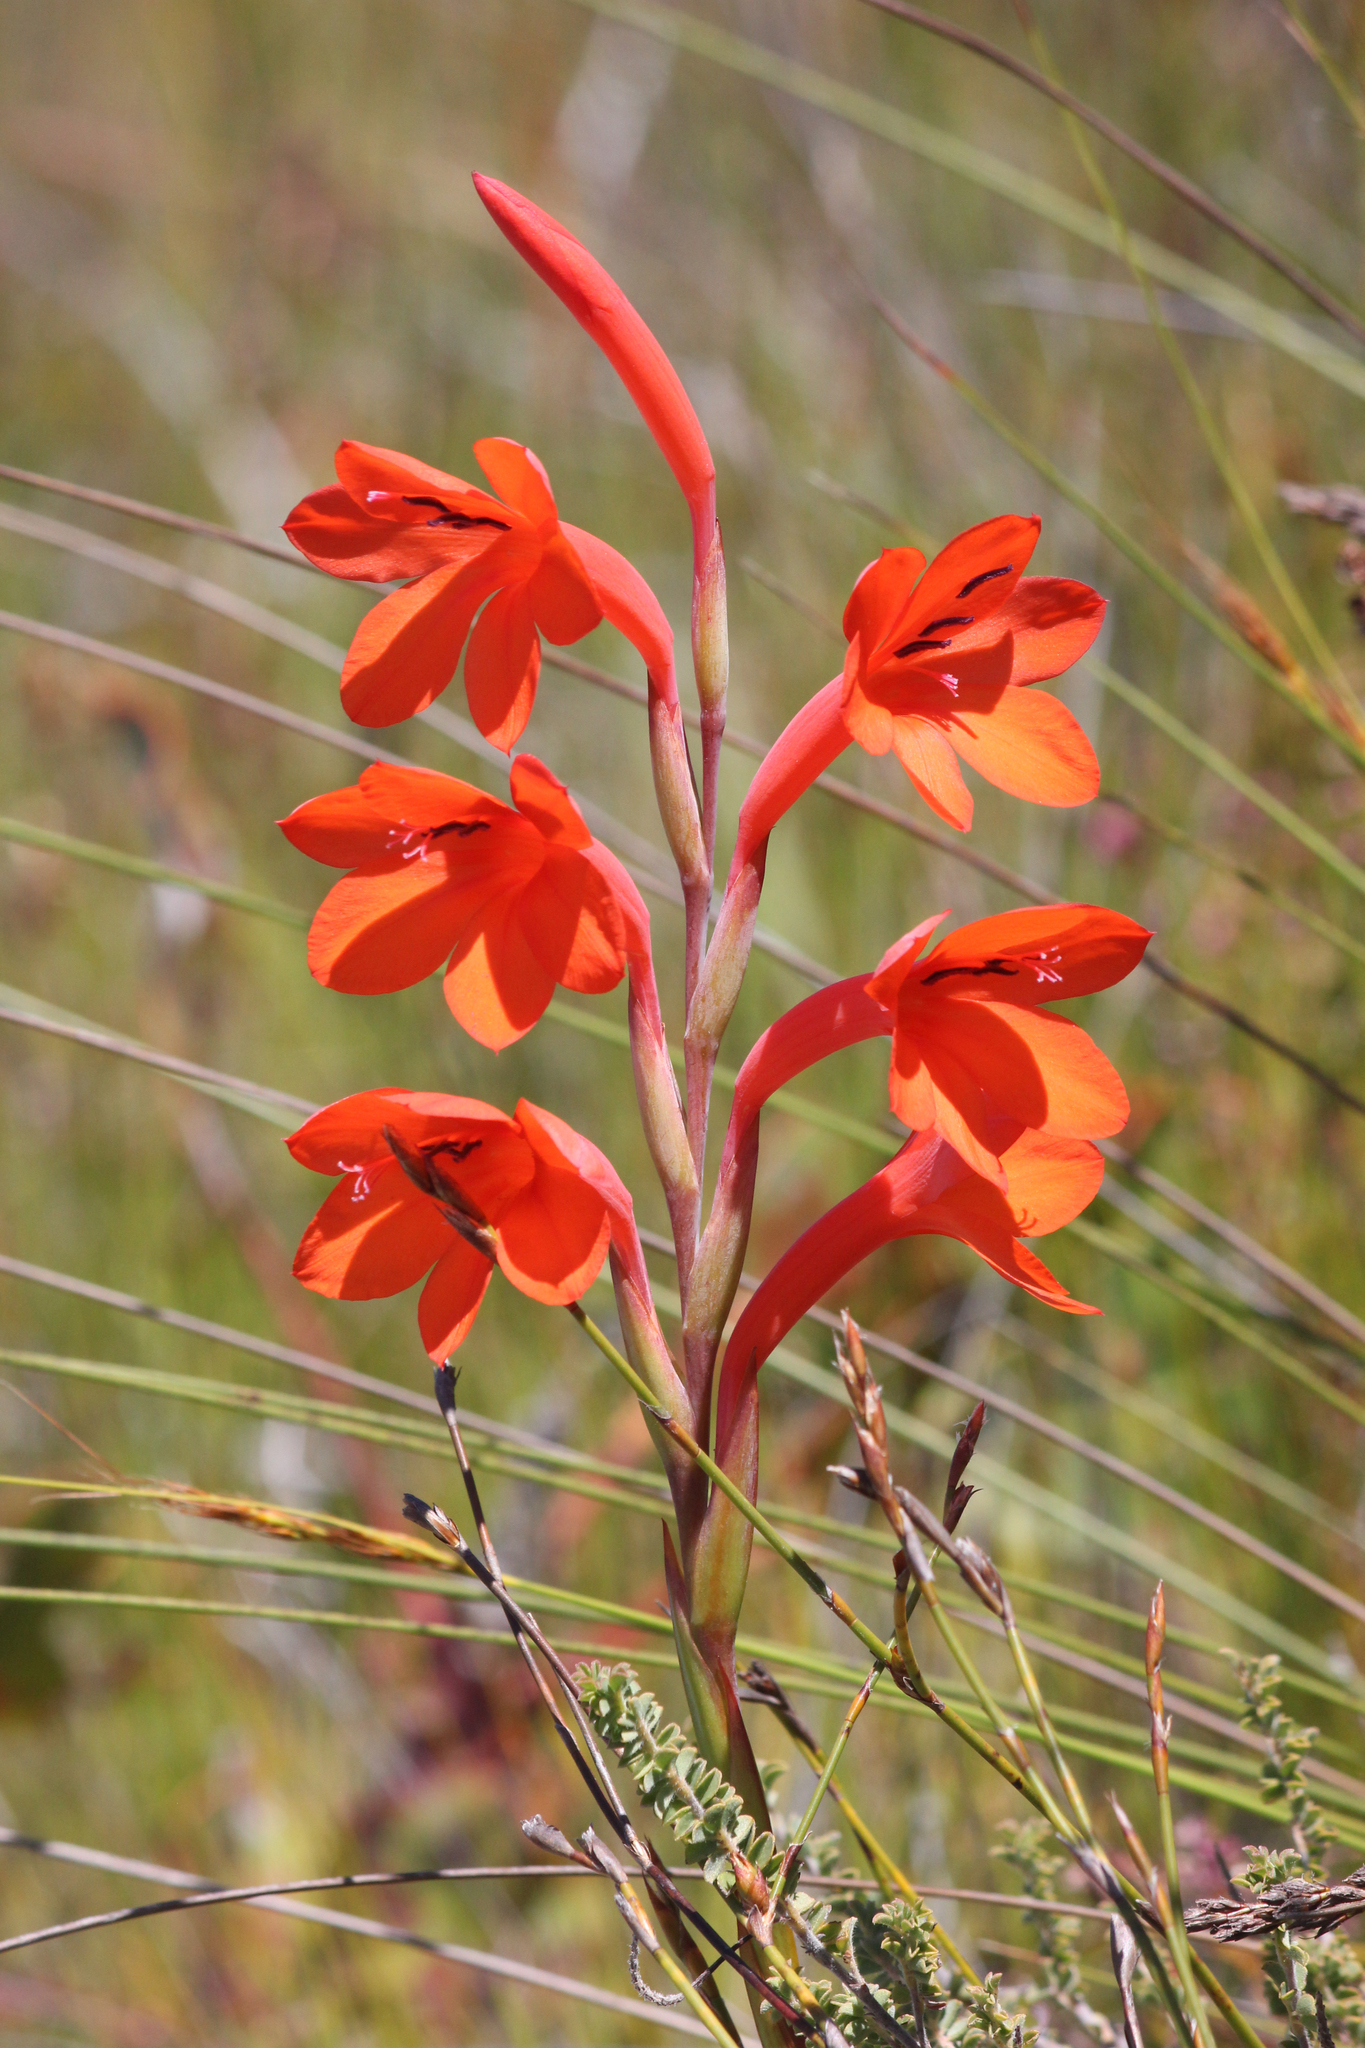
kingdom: Plantae
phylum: Tracheophyta
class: Liliopsida
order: Asparagales
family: Iridaceae
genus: Watsonia
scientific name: Watsonia schlechteri
